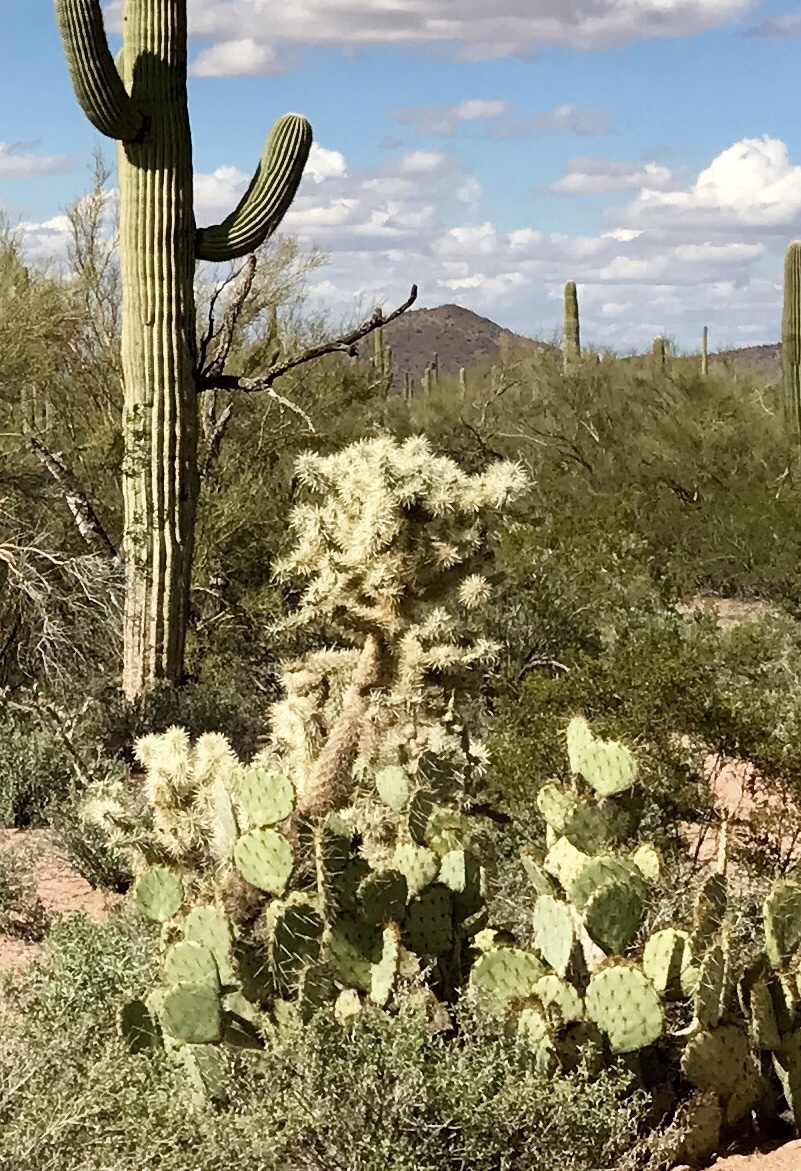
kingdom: Plantae
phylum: Tracheophyta
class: Magnoliopsida
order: Caryophyllales
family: Cactaceae
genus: Cylindropuntia
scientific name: Cylindropuntia fulgida
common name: Jumping cholla
